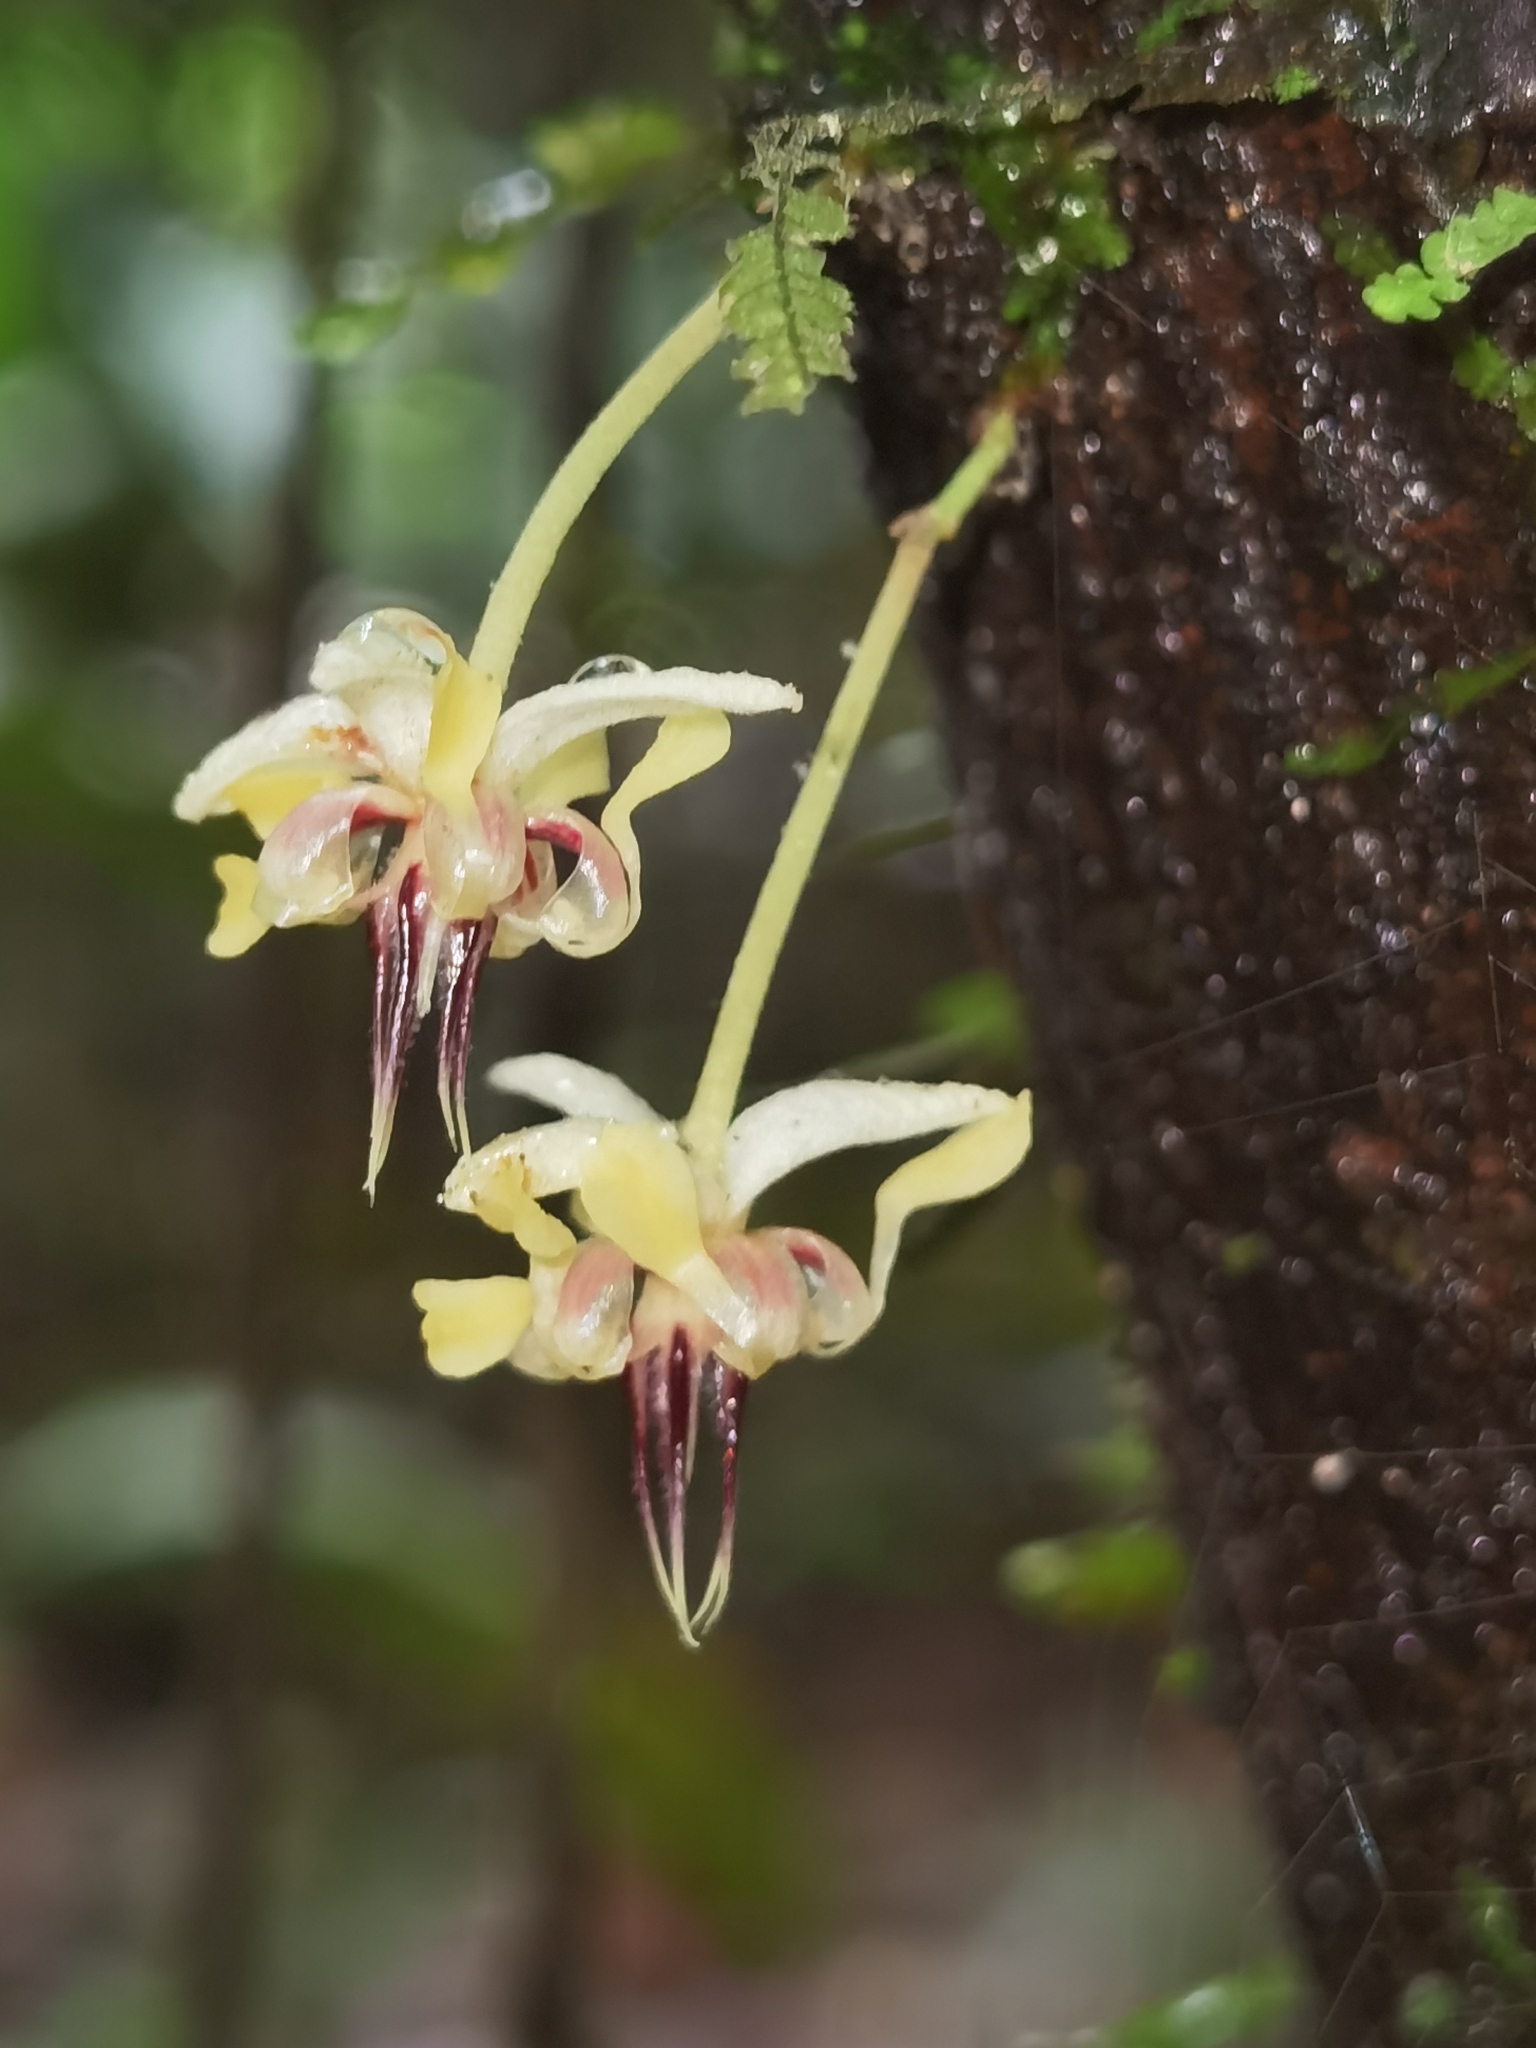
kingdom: Plantae
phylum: Tracheophyta
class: Magnoliopsida
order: Malvales
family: Malvaceae
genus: Theobroma
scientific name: Theobroma cacao
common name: Cocoa
